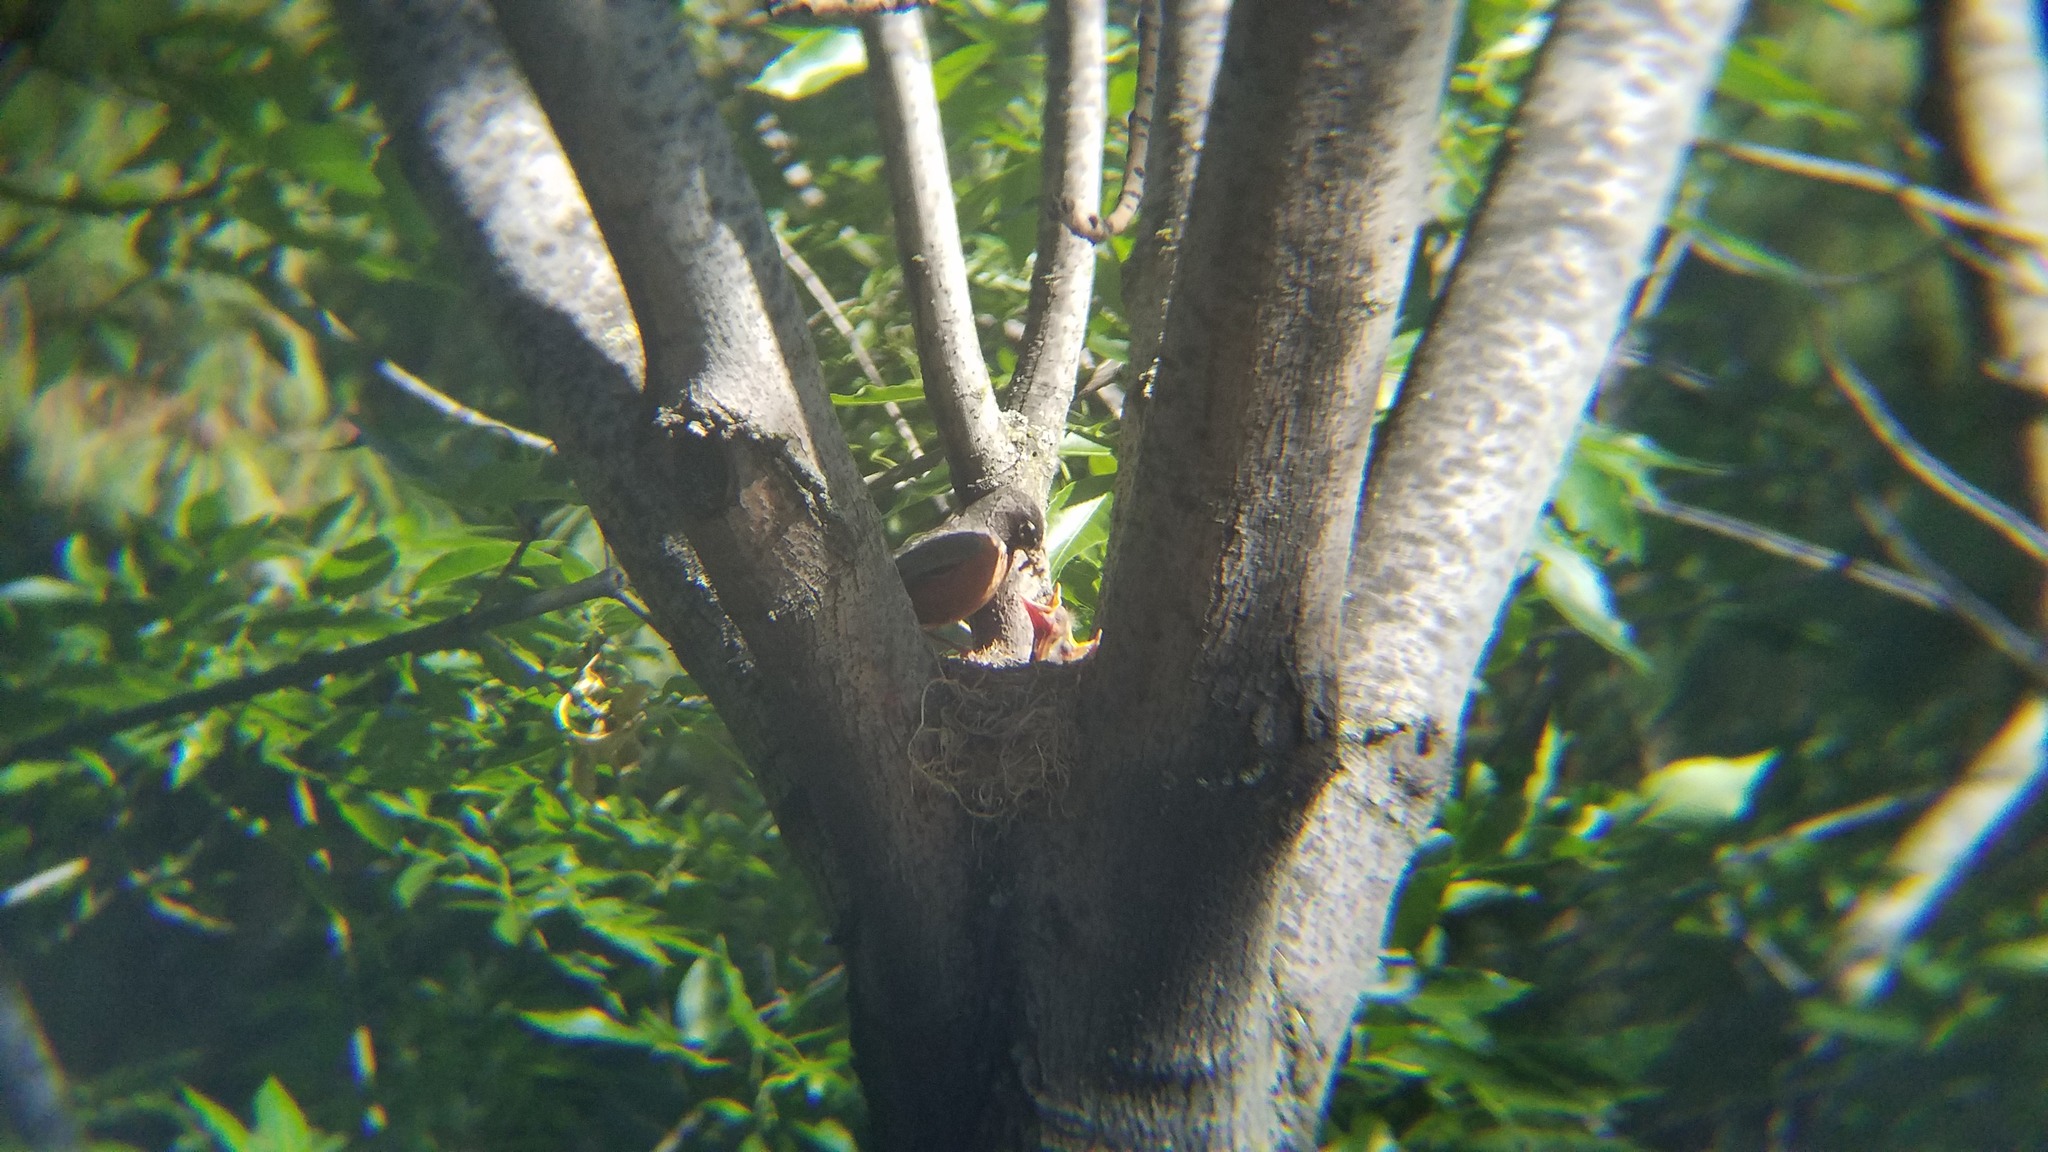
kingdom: Animalia
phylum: Chordata
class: Aves
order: Passeriformes
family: Turdidae
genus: Turdus
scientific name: Turdus migratorius
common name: American robin
